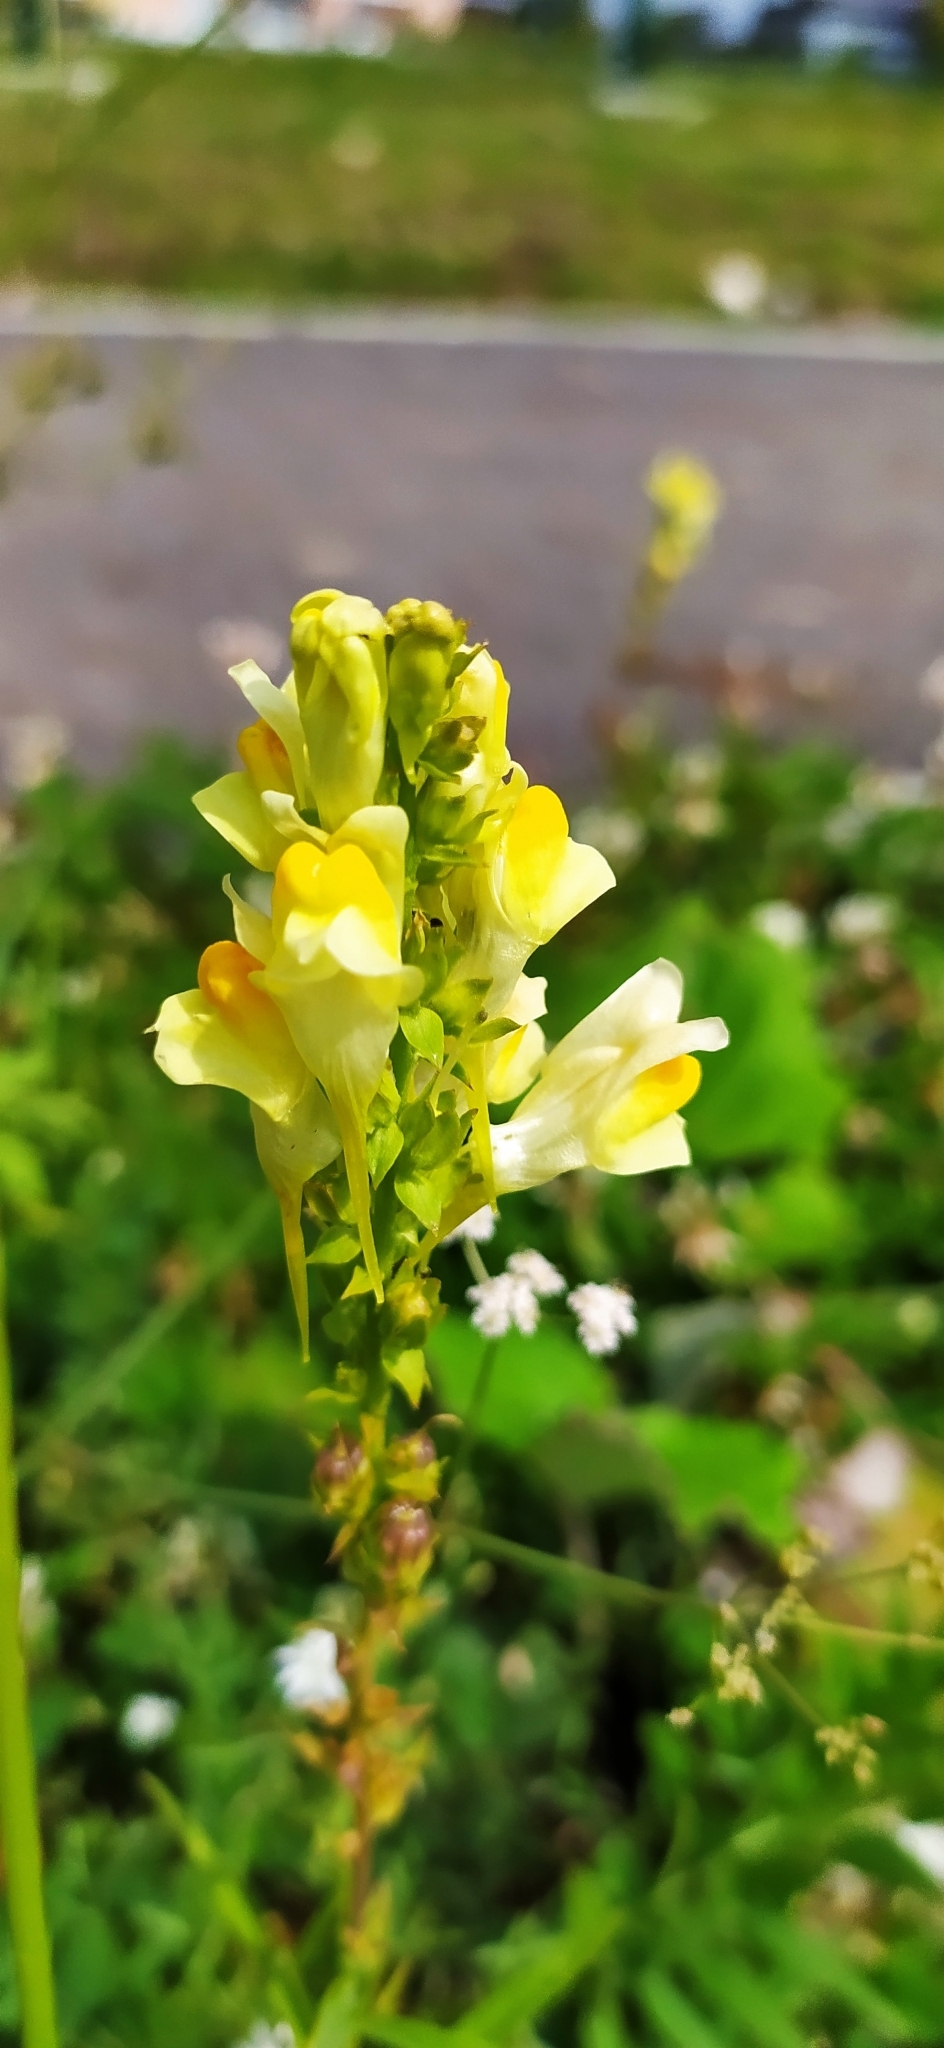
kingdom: Plantae
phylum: Tracheophyta
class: Magnoliopsida
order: Lamiales
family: Plantaginaceae
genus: Linaria
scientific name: Linaria vulgaris
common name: Butter and eggs
